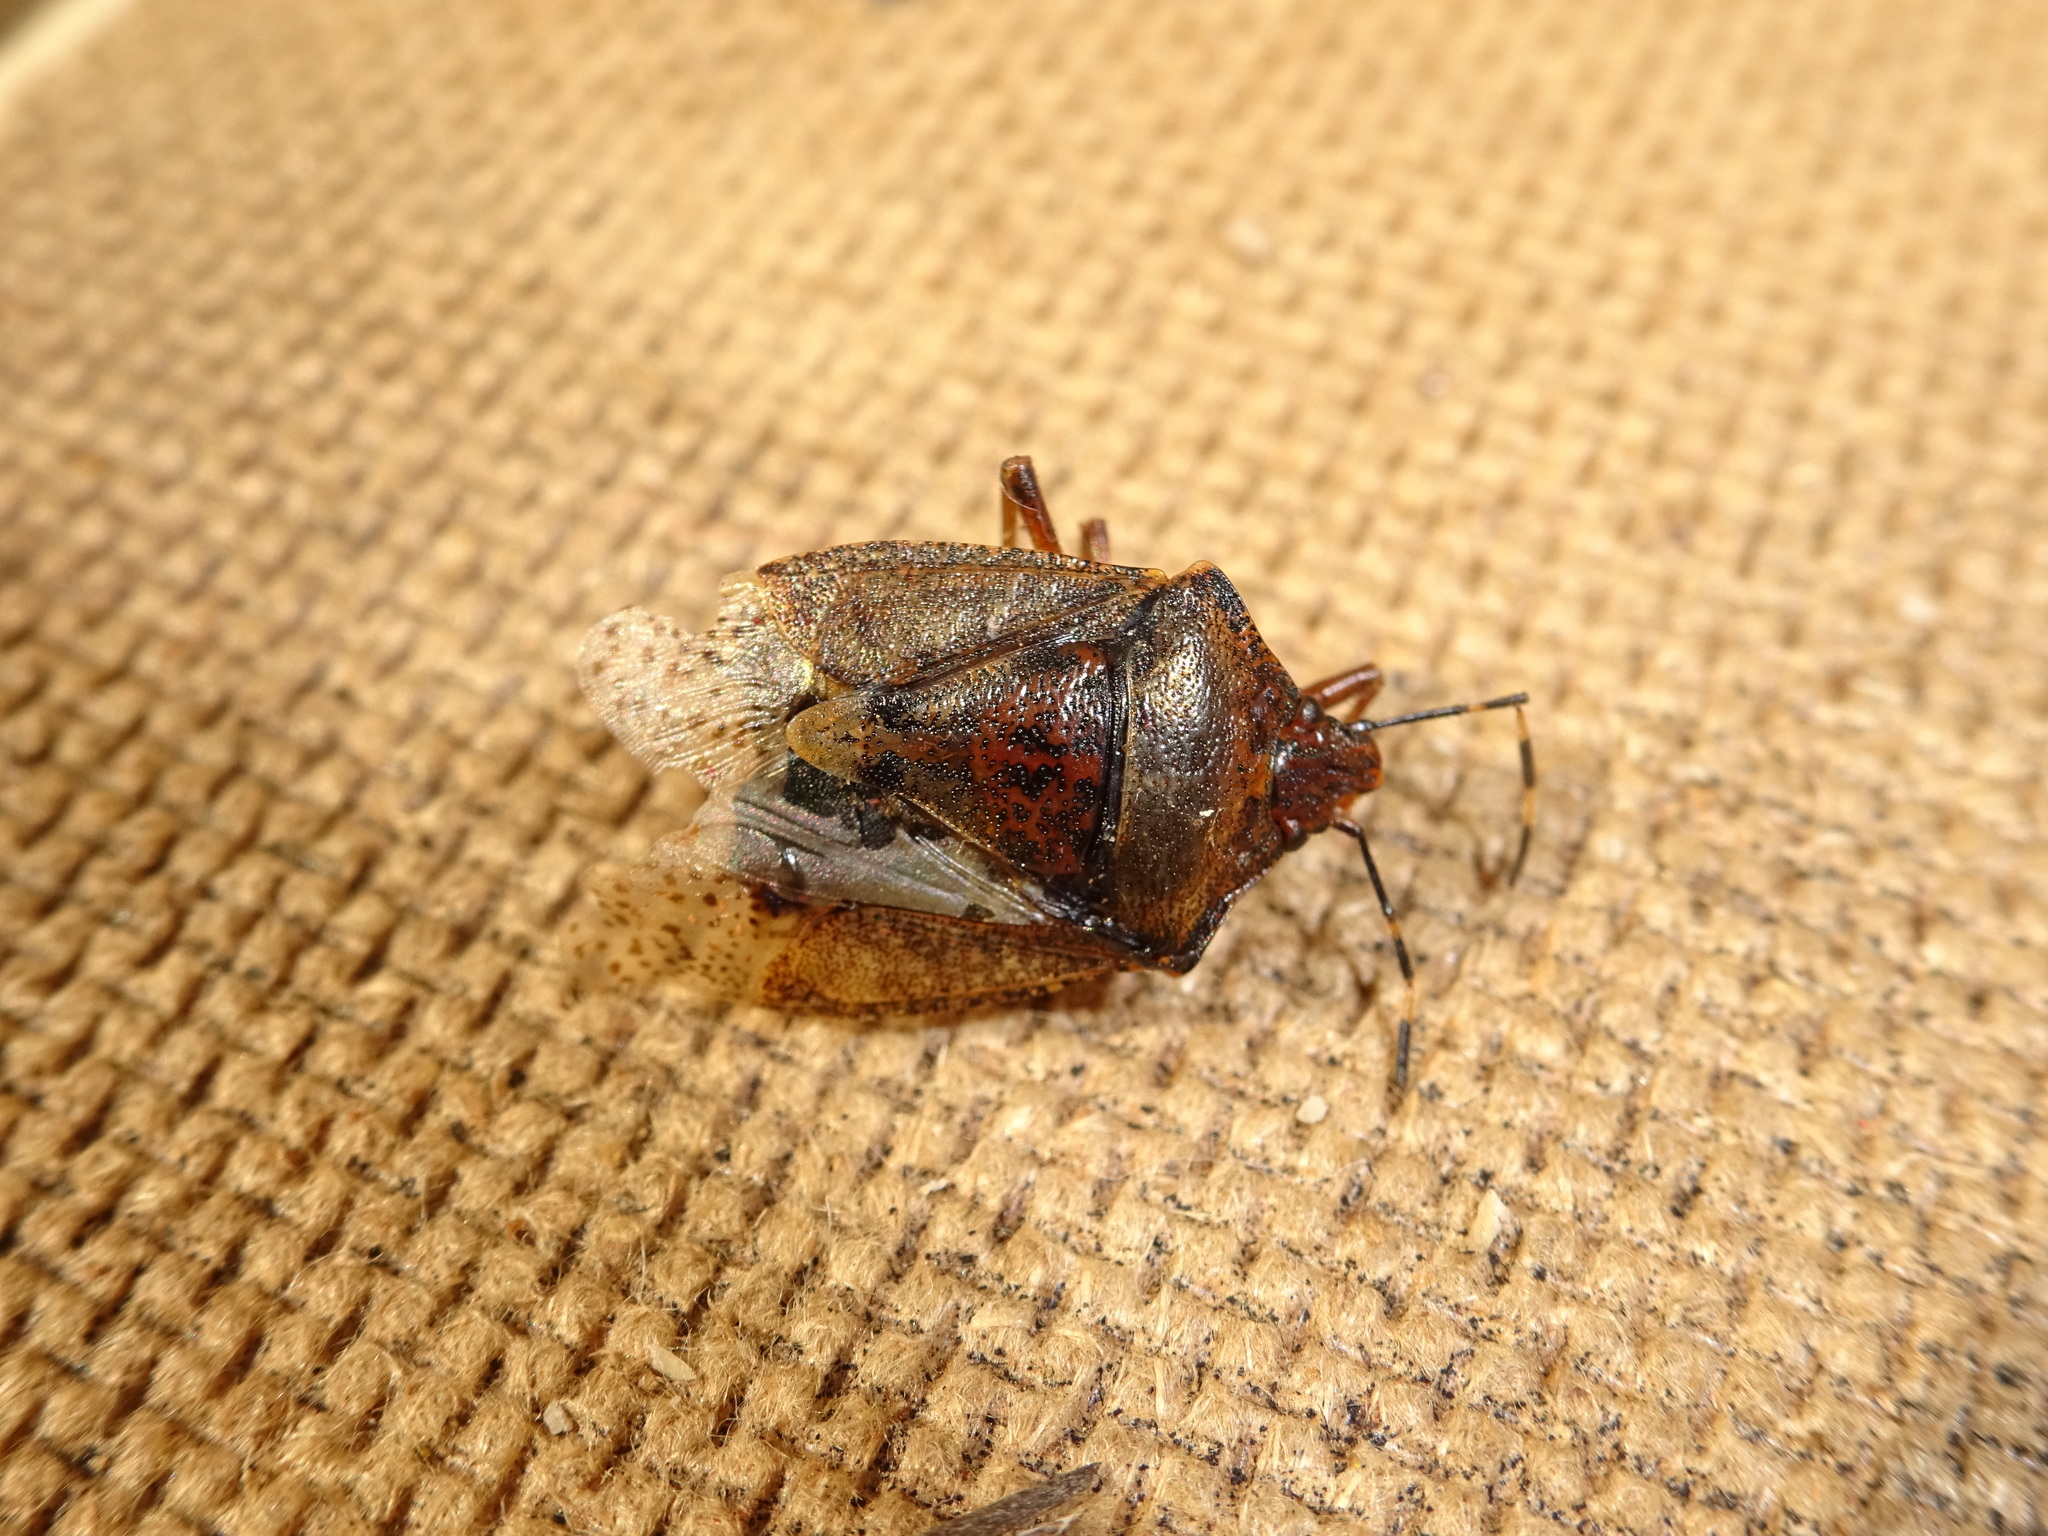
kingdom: Animalia
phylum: Arthropoda
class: Insecta
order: Hemiptera
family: Pentatomidae
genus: Rhaphigaster
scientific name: Rhaphigaster nebulosa
